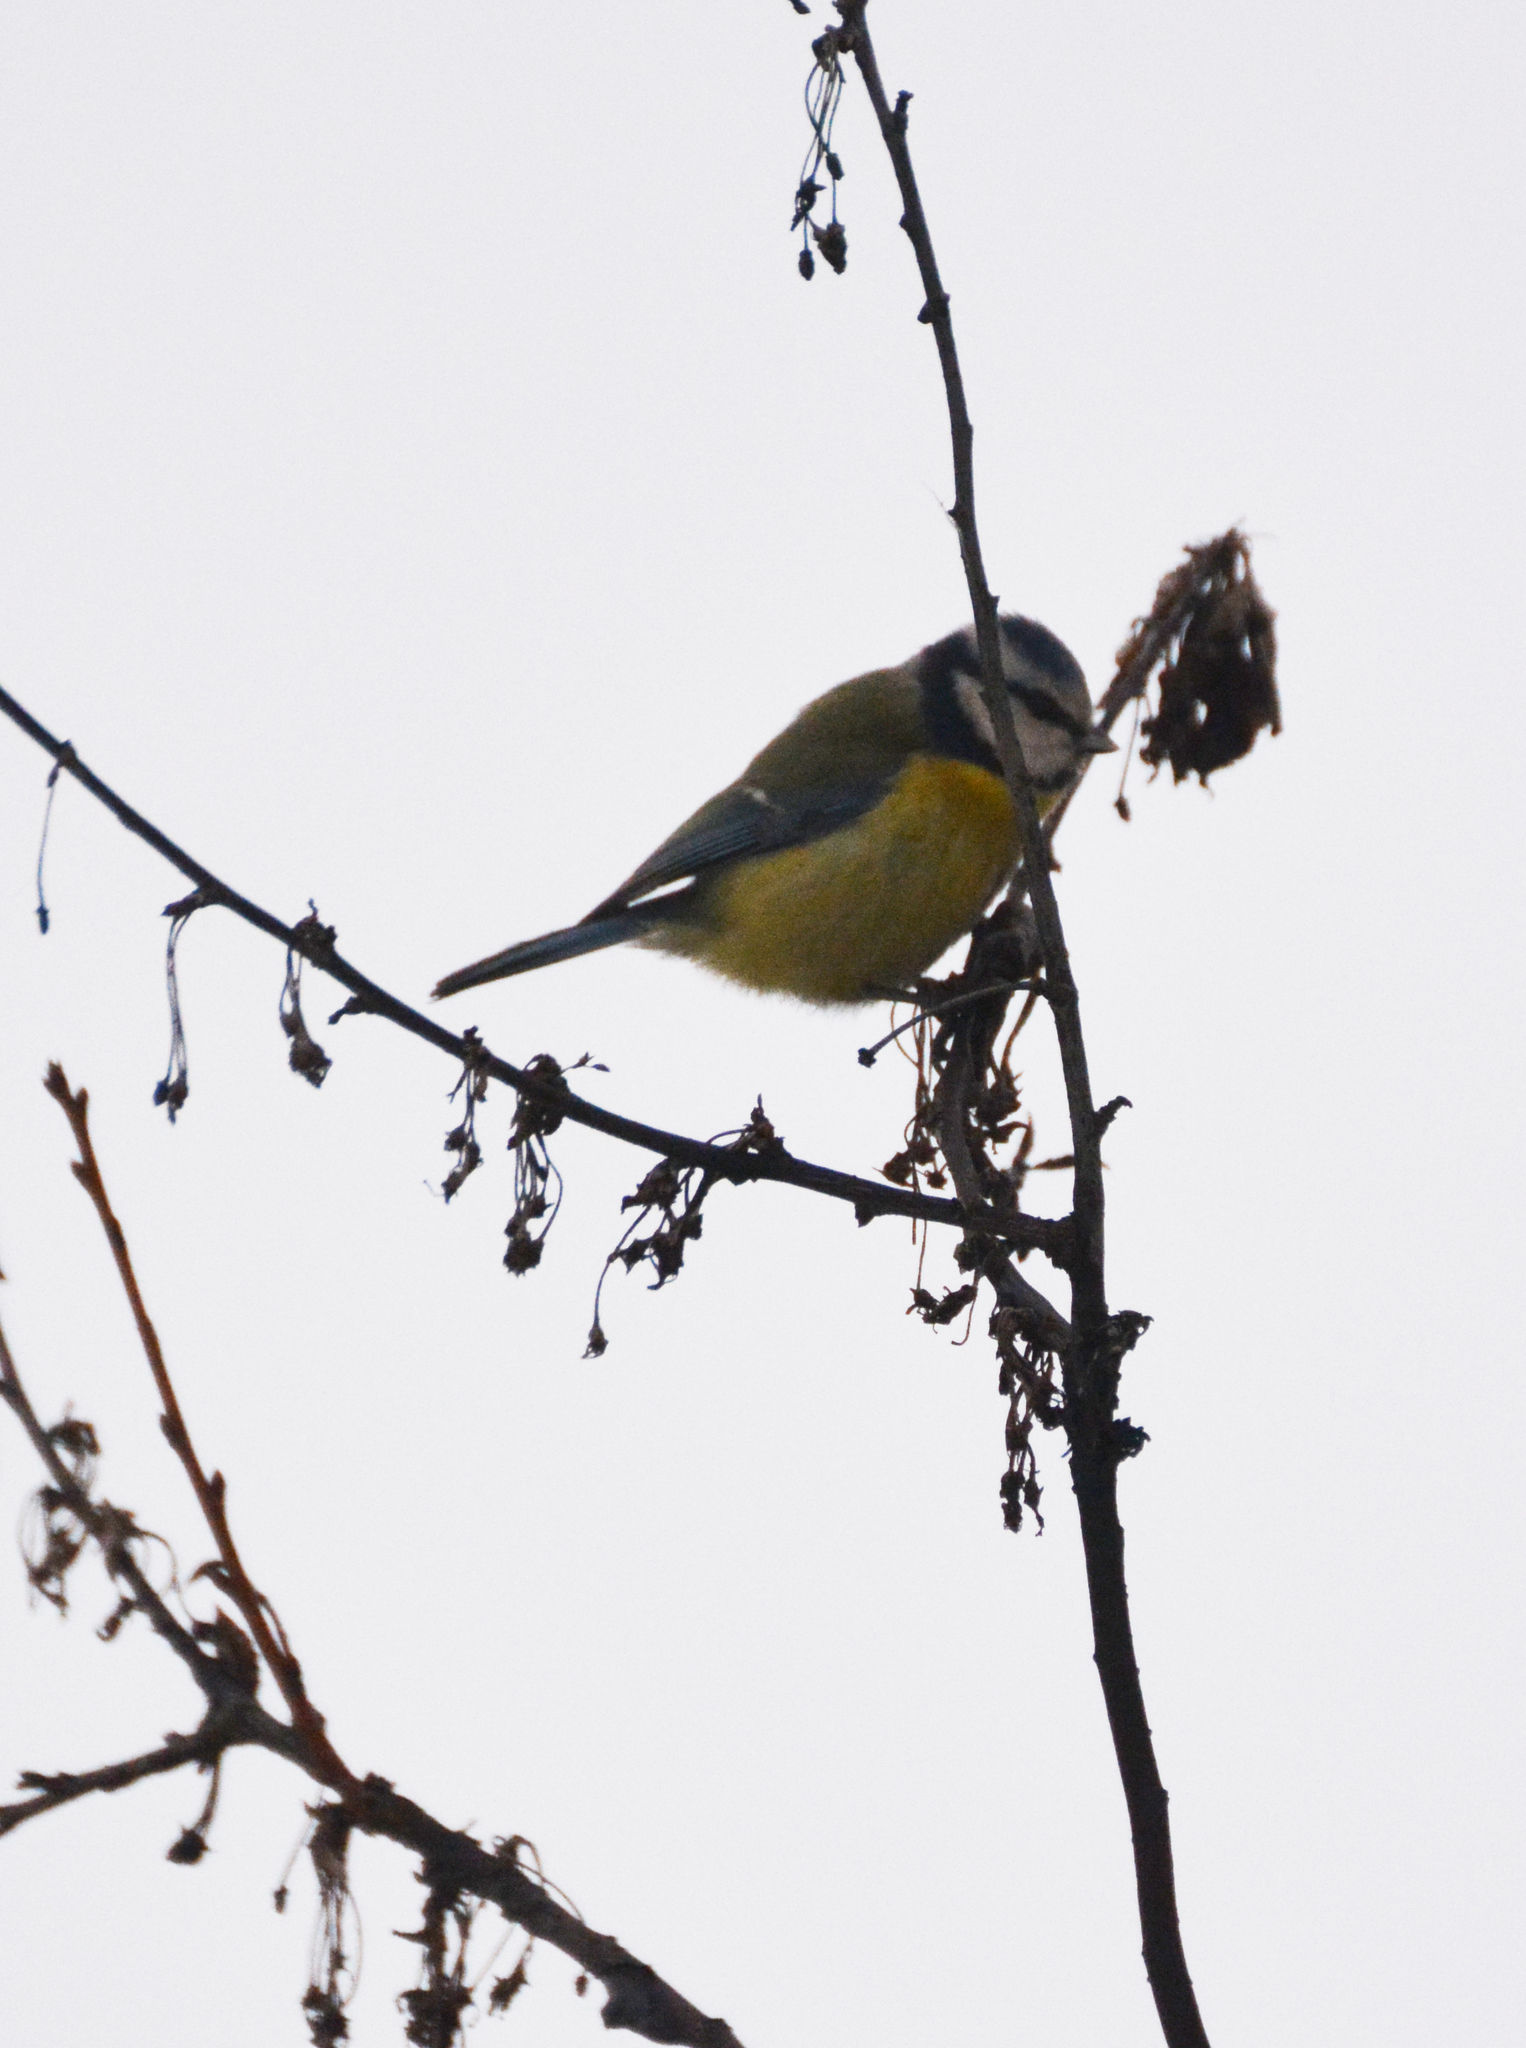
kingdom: Animalia
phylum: Chordata
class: Aves
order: Passeriformes
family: Paridae
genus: Cyanistes
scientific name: Cyanistes caeruleus
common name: Eurasian blue tit
